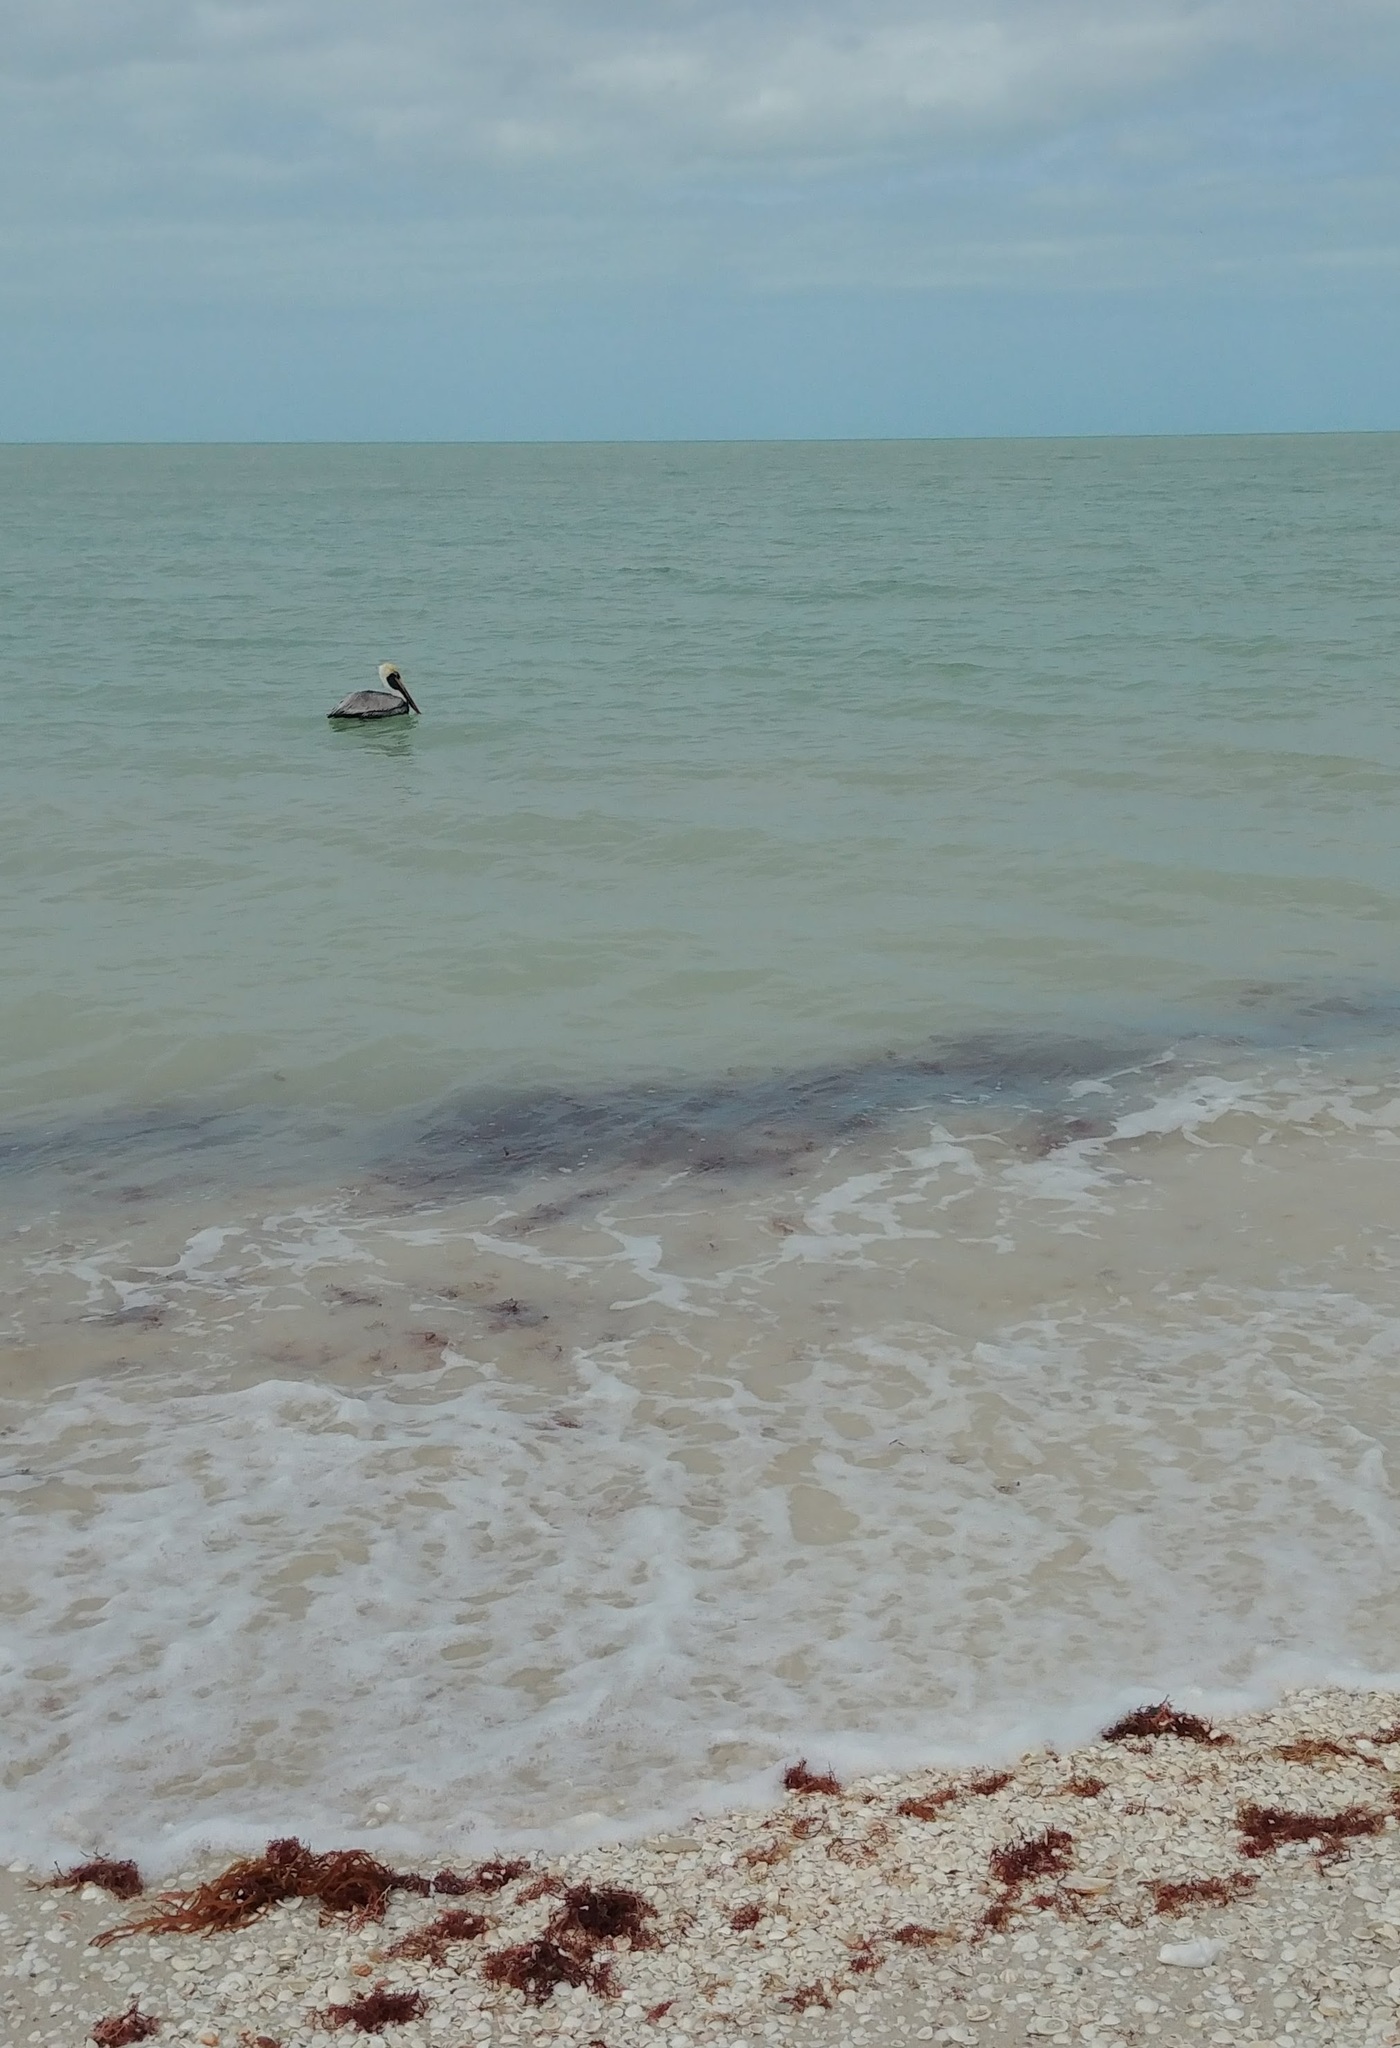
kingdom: Animalia
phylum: Chordata
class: Aves
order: Pelecaniformes
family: Pelecanidae
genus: Pelecanus
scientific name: Pelecanus occidentalis
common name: Brown pelican
